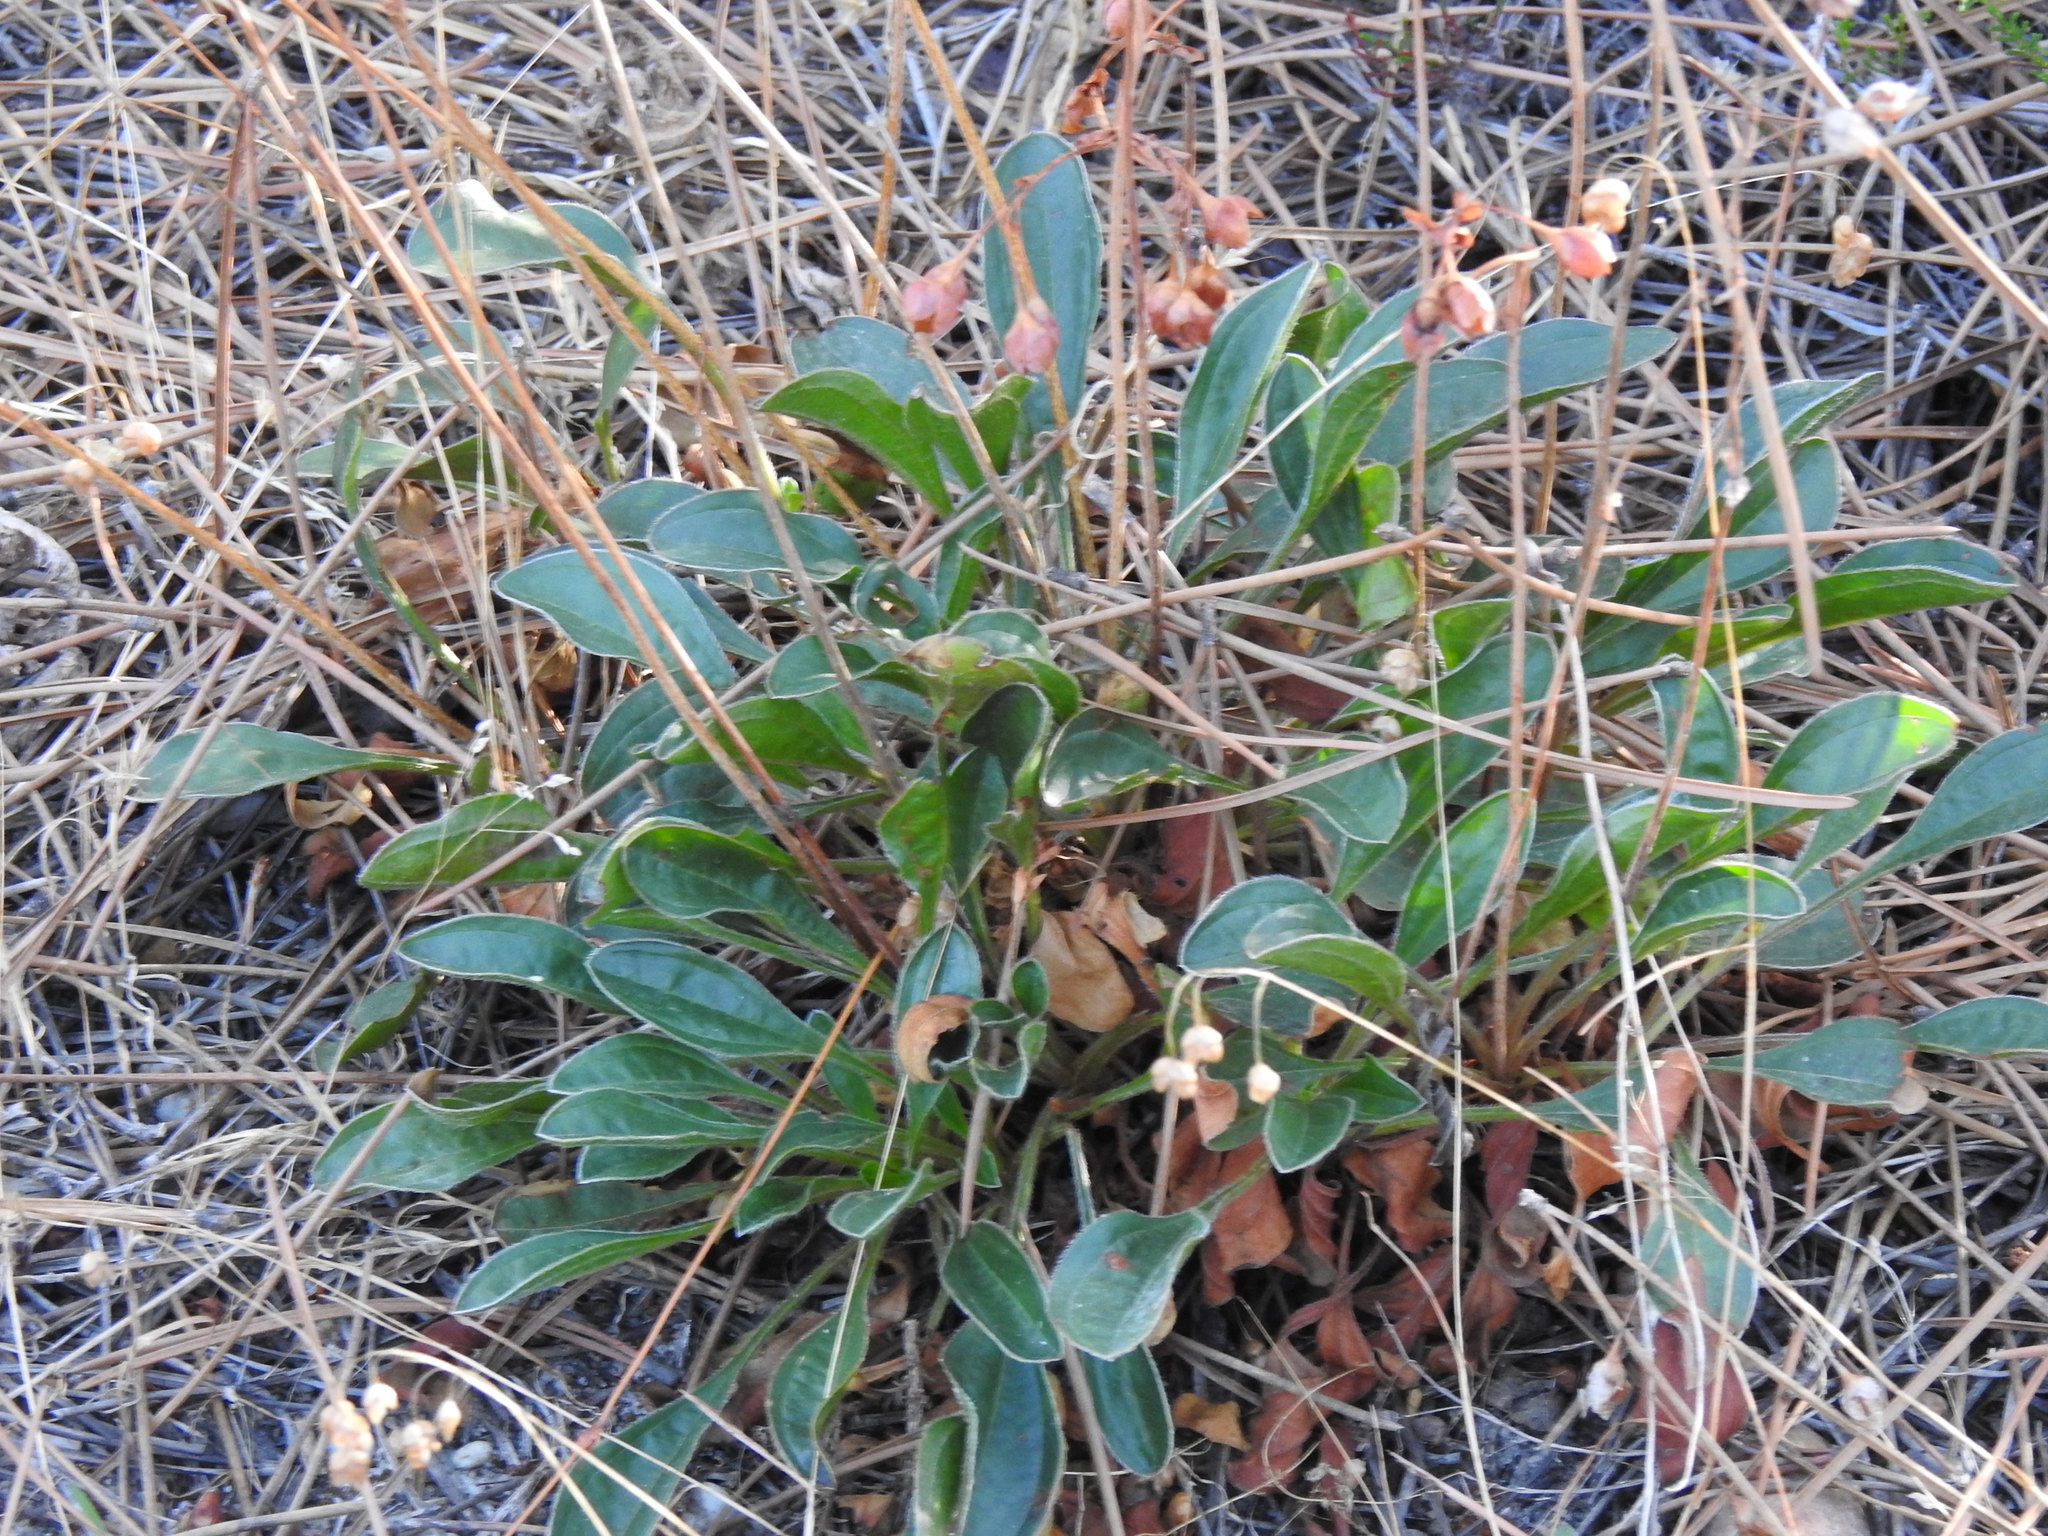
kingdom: Plantae
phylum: Tracheophyta
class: Magnoliopsida
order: Malvales
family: Cistaceae
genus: Tuberaria
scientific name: Tuberaria globulariifolia
